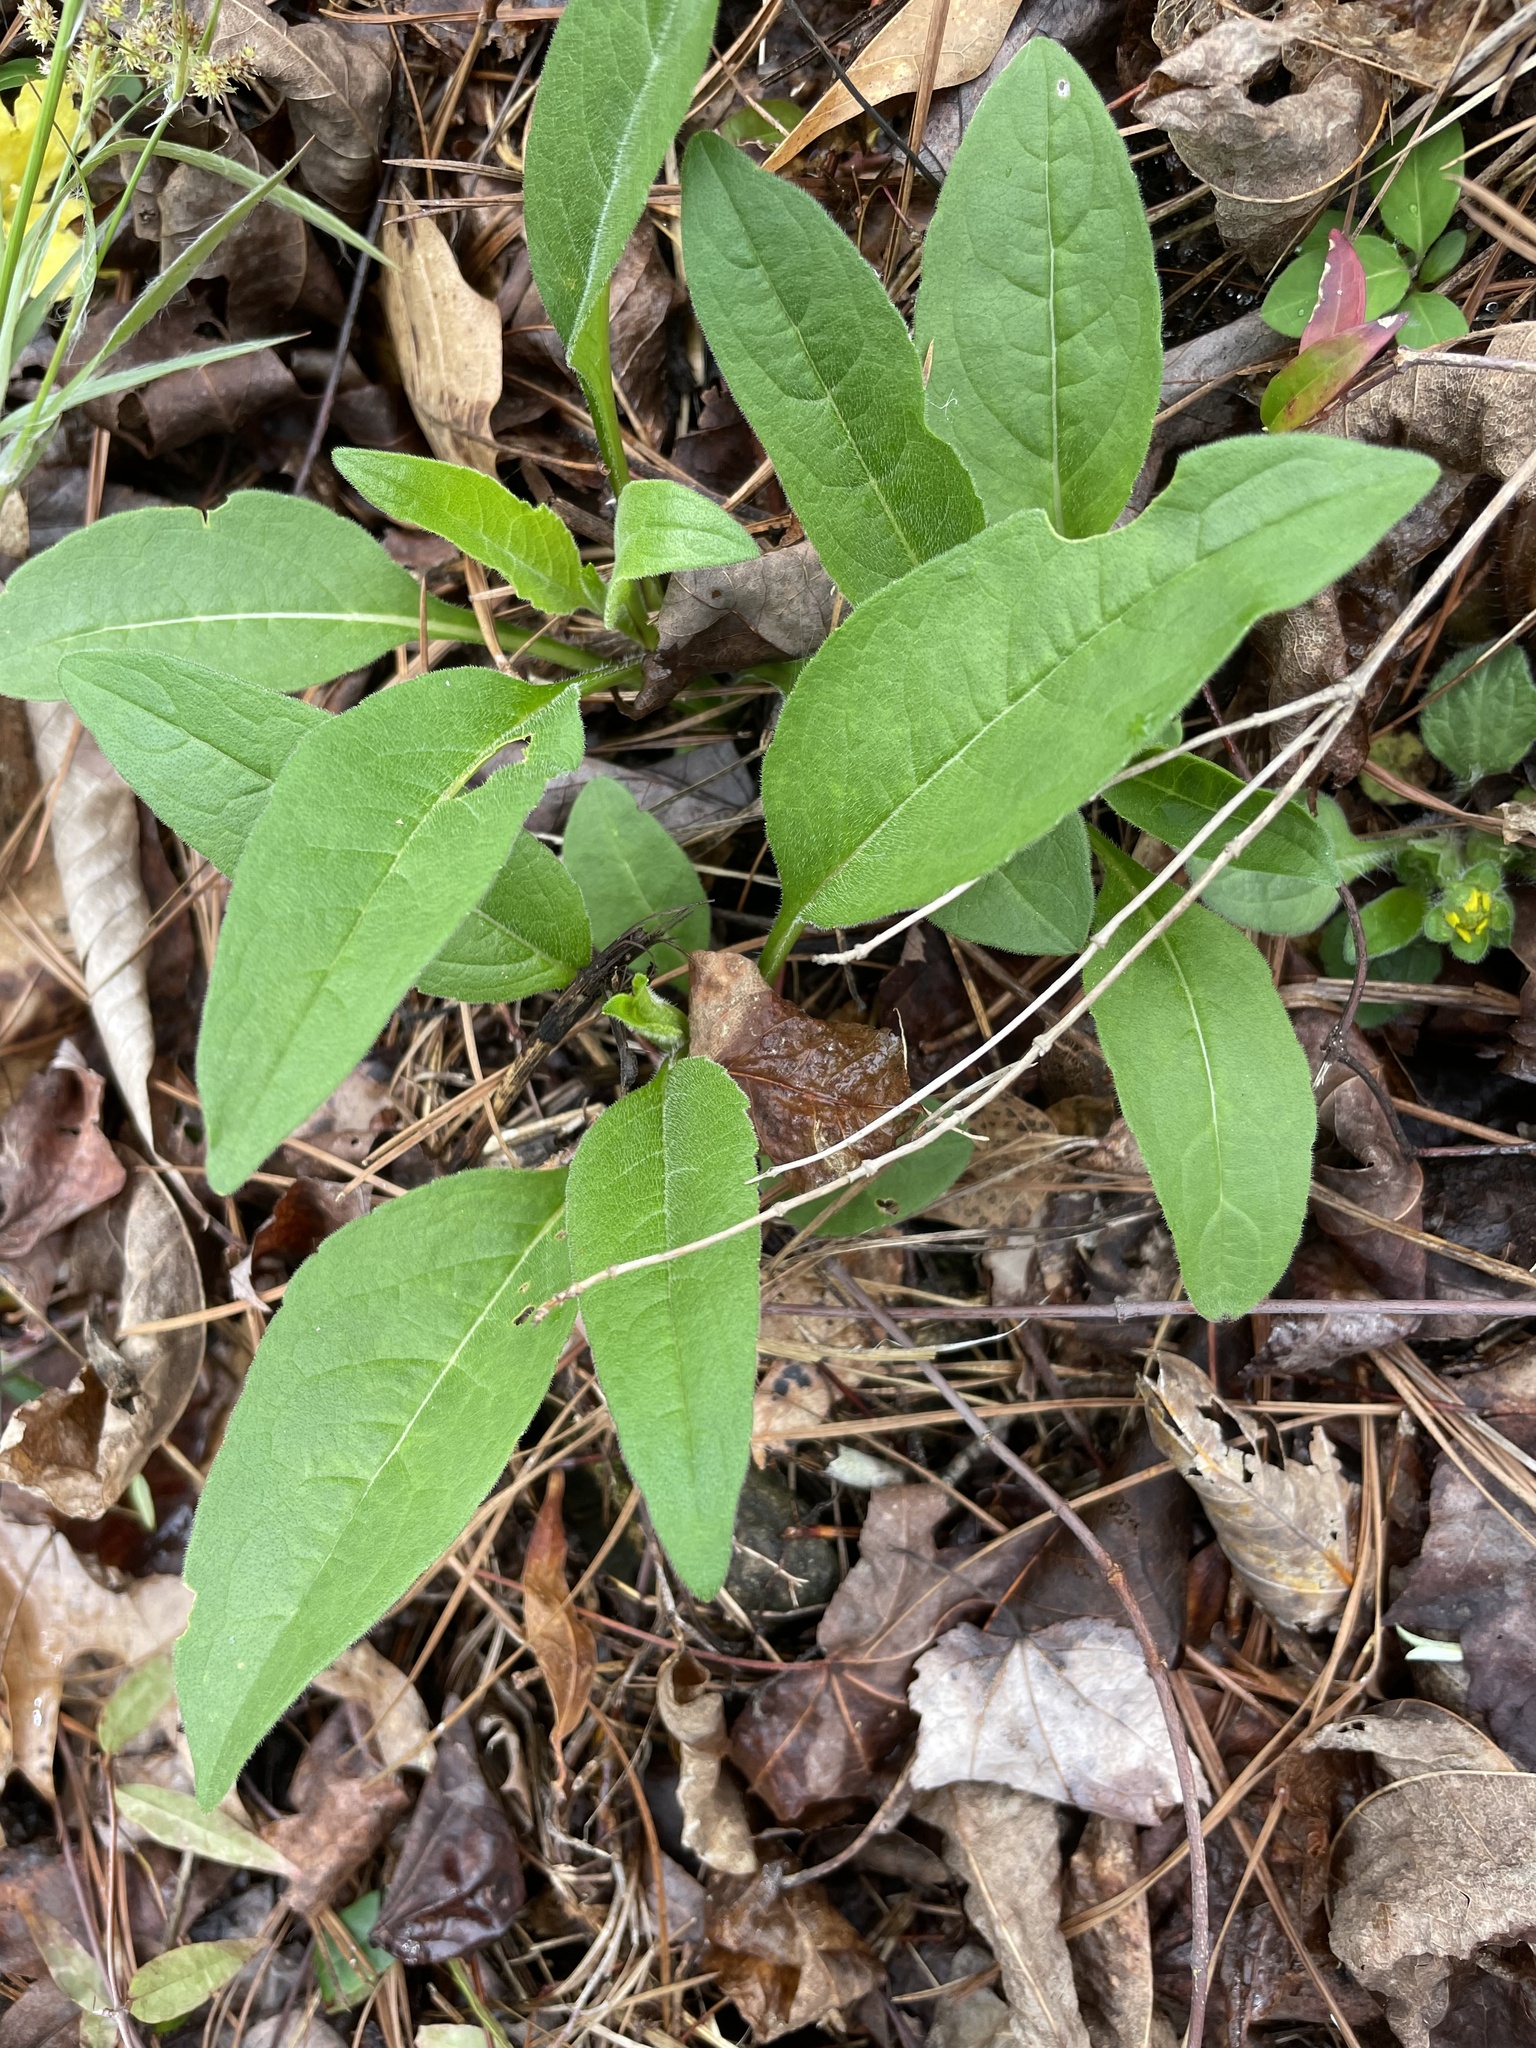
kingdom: Plantae
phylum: Tracheophyta
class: Magnoliopsida
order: Asterales
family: Asteraceae
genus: Silphium
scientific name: Silphium asteriscus
